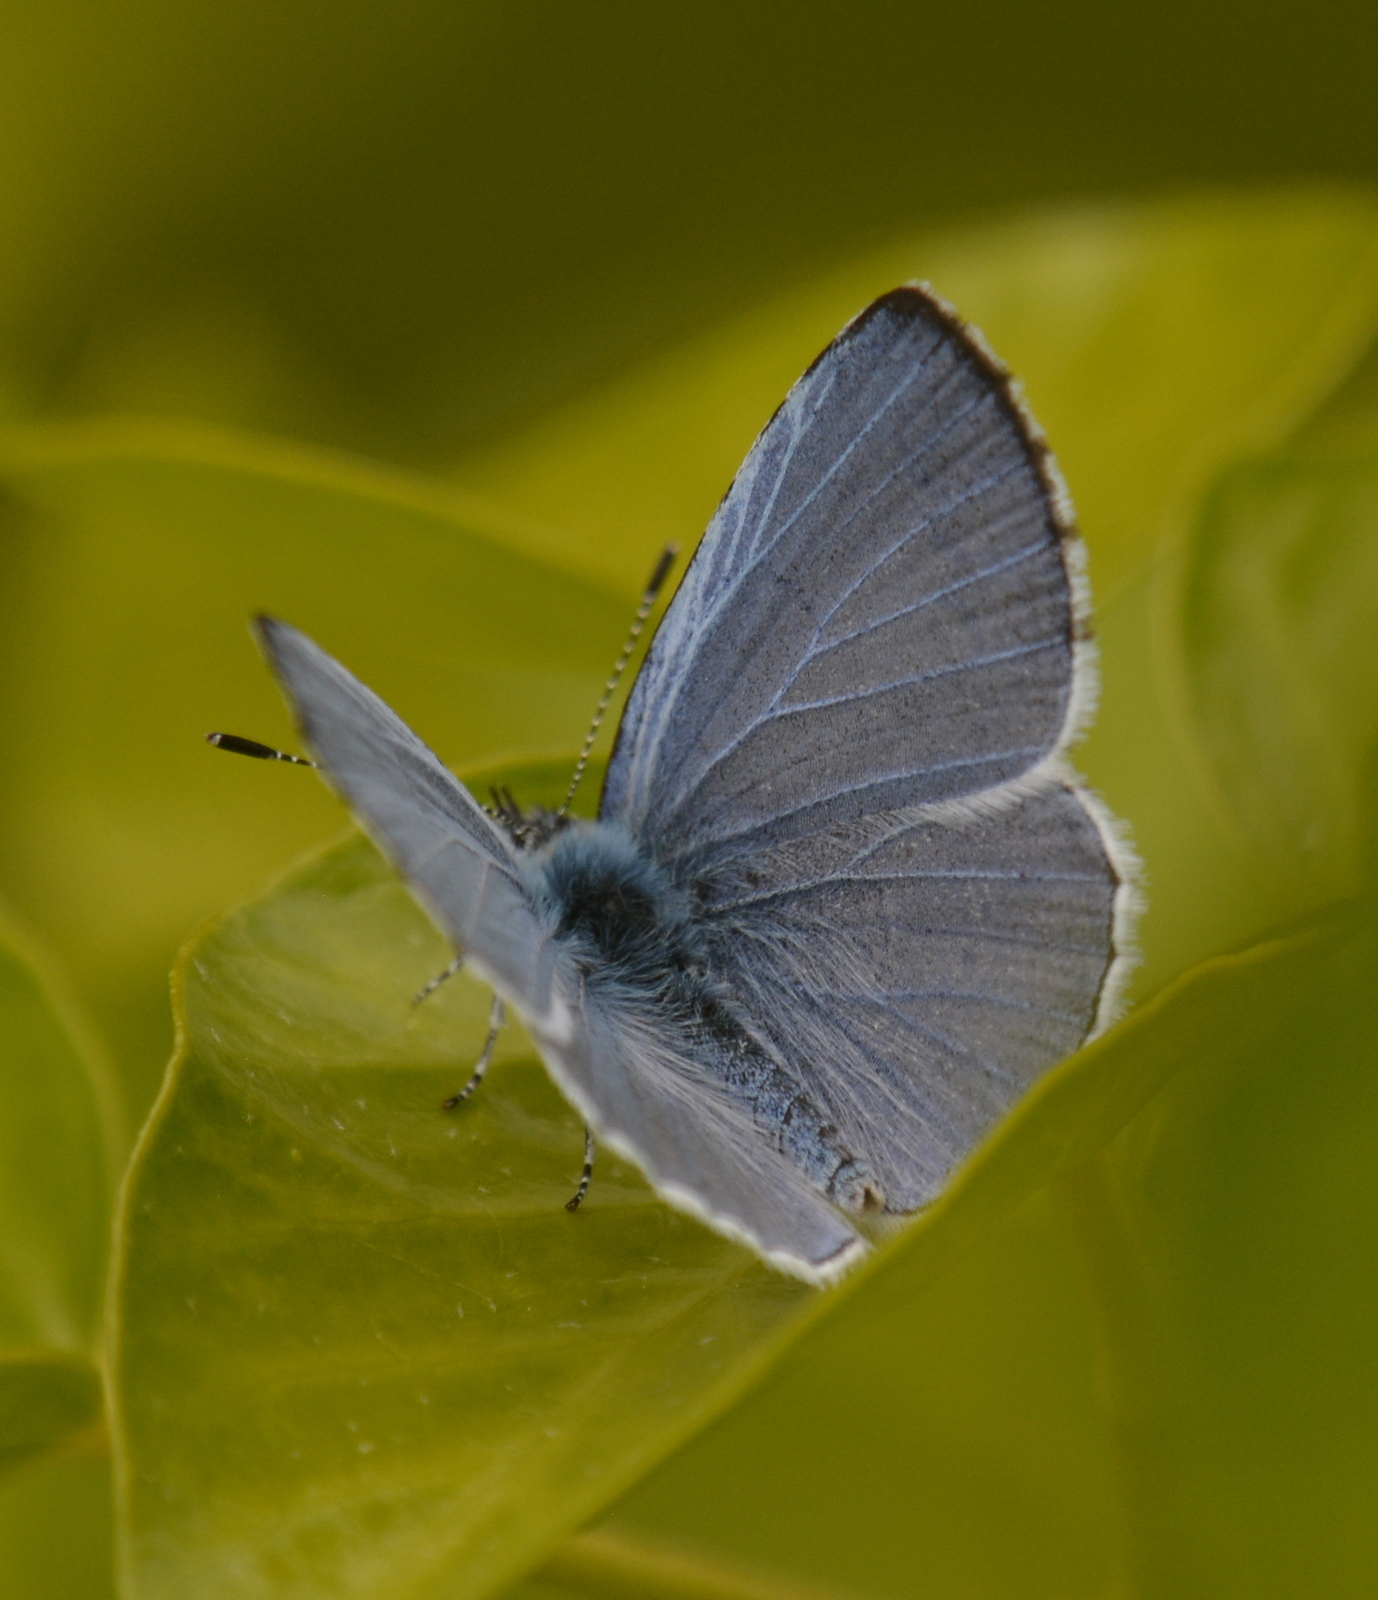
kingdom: Animalia
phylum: Arthropoda
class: Insecta
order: Lepidoptera
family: Lycaenidae
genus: Celastrina
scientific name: Celastrina argiolus
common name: Holly blue
